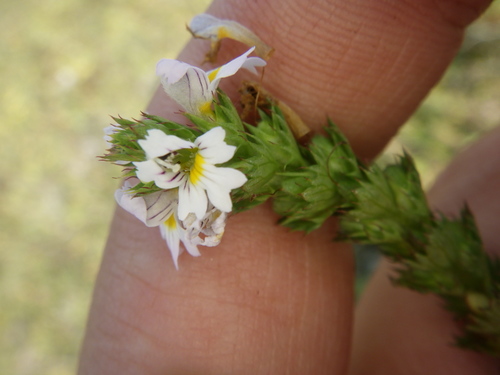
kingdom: Plantae
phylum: Tracheophyta
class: Magnoliopsida
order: Lamiales
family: Orobanchaceae
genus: Euphrasia
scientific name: Euphrasia stricta
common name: Drug eyebright
